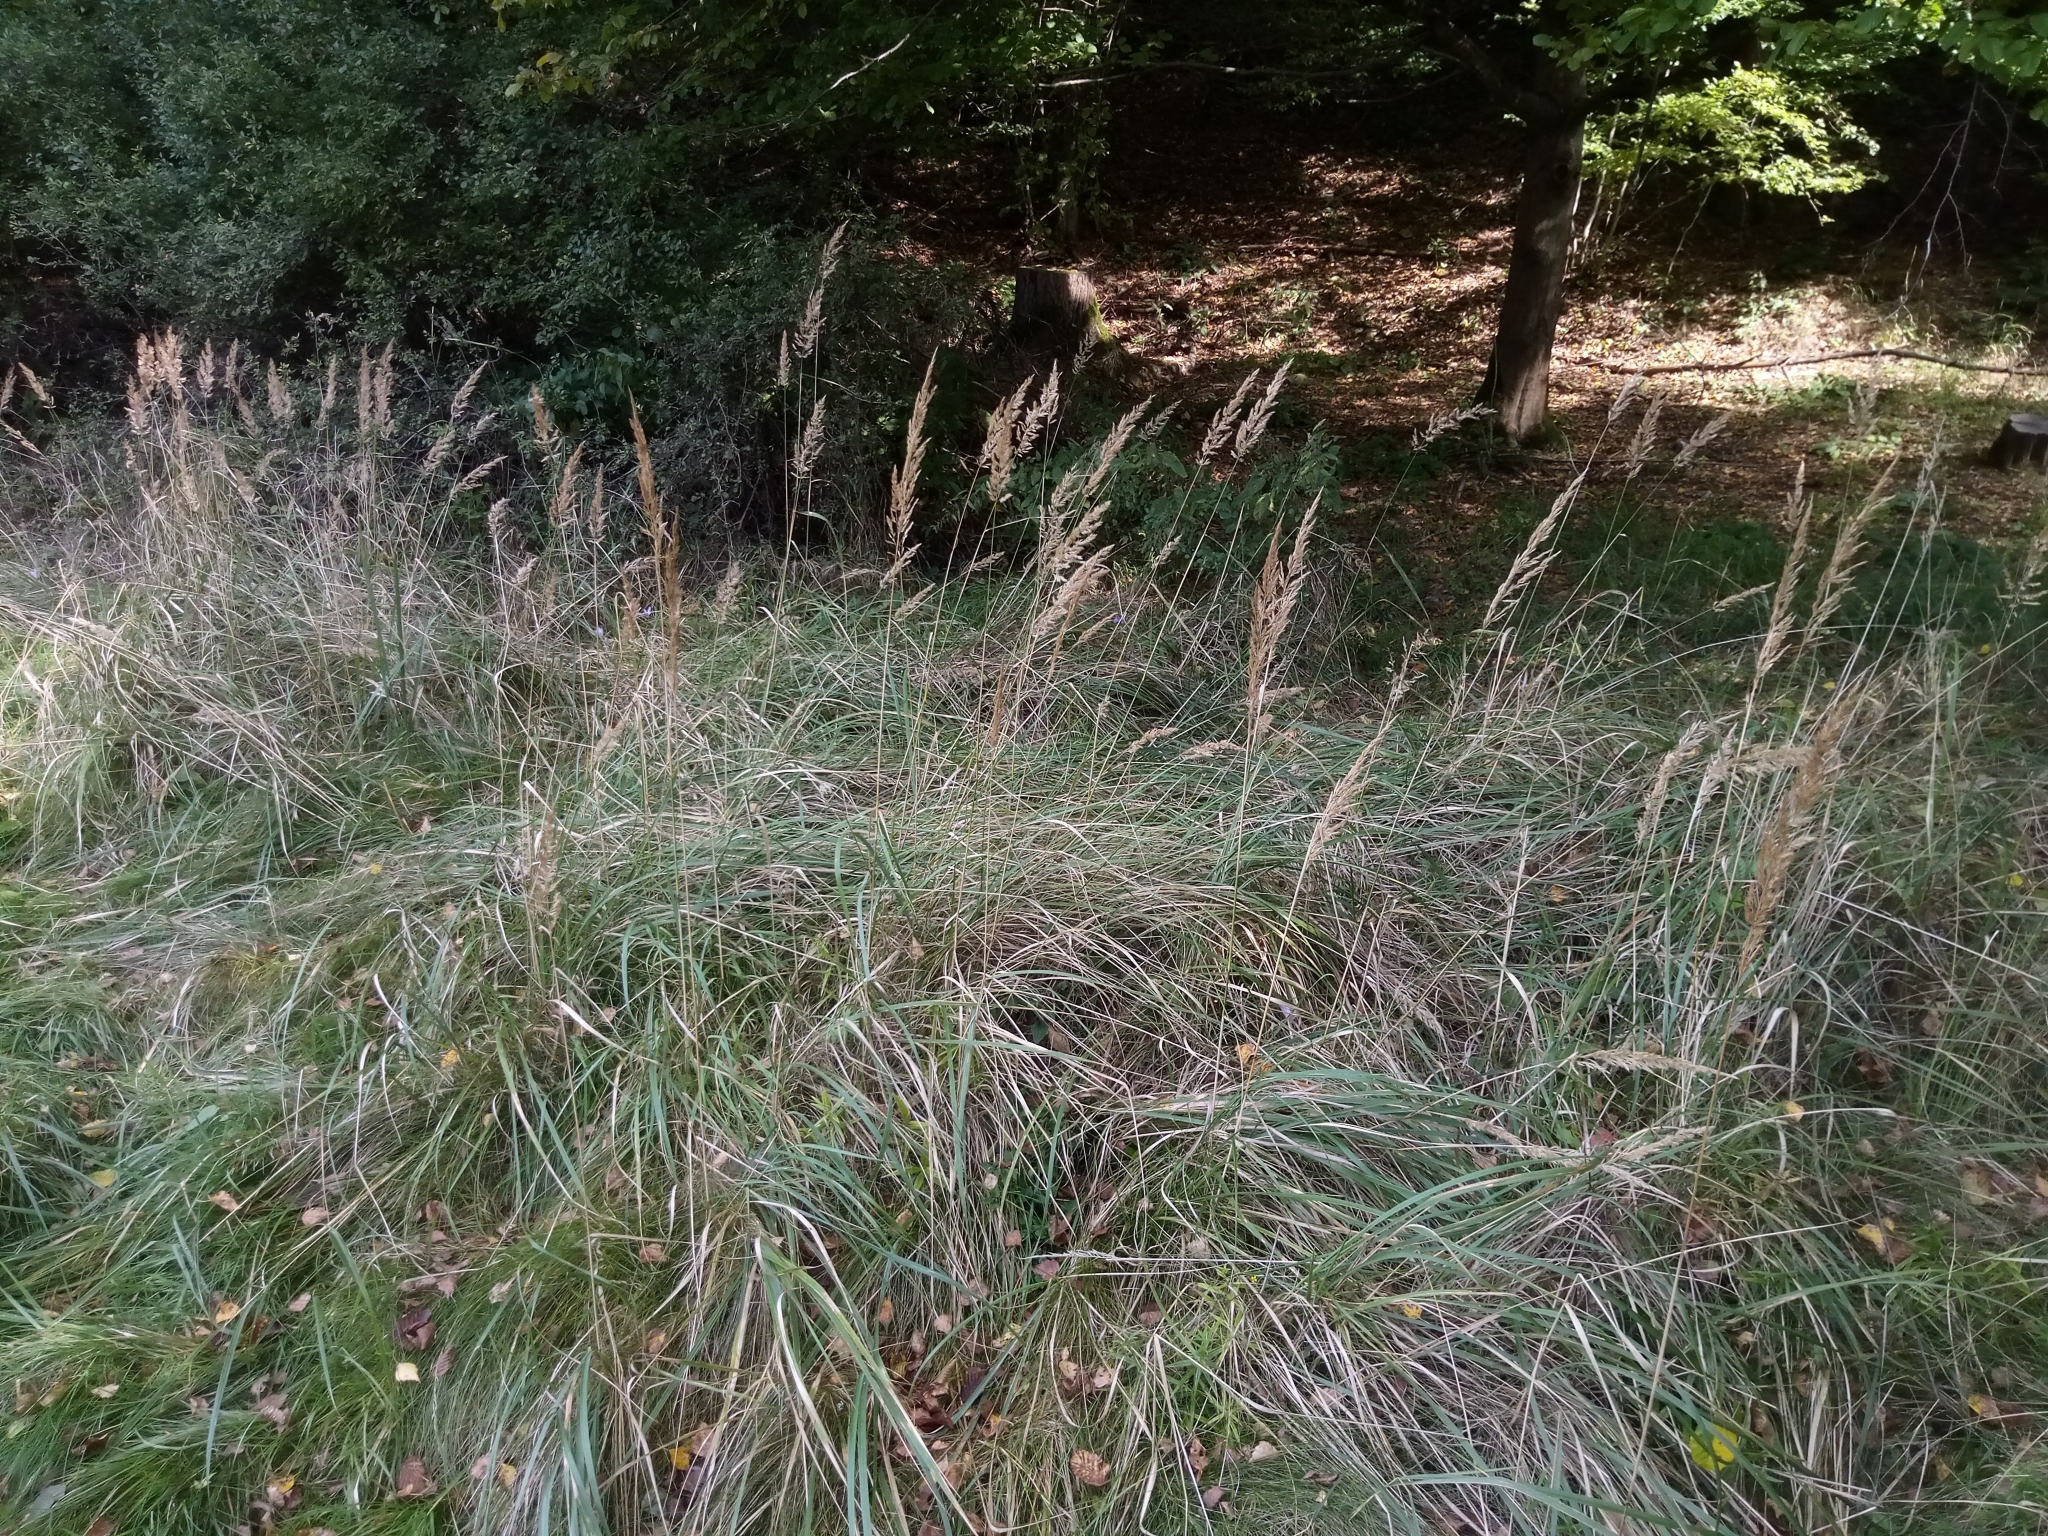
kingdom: Plantae
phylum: Tracheophyta
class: Liliopsida
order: Poales
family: Poaceae
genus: Calamagrostis
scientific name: Calamagrostis epigejos
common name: Wood small-reed
